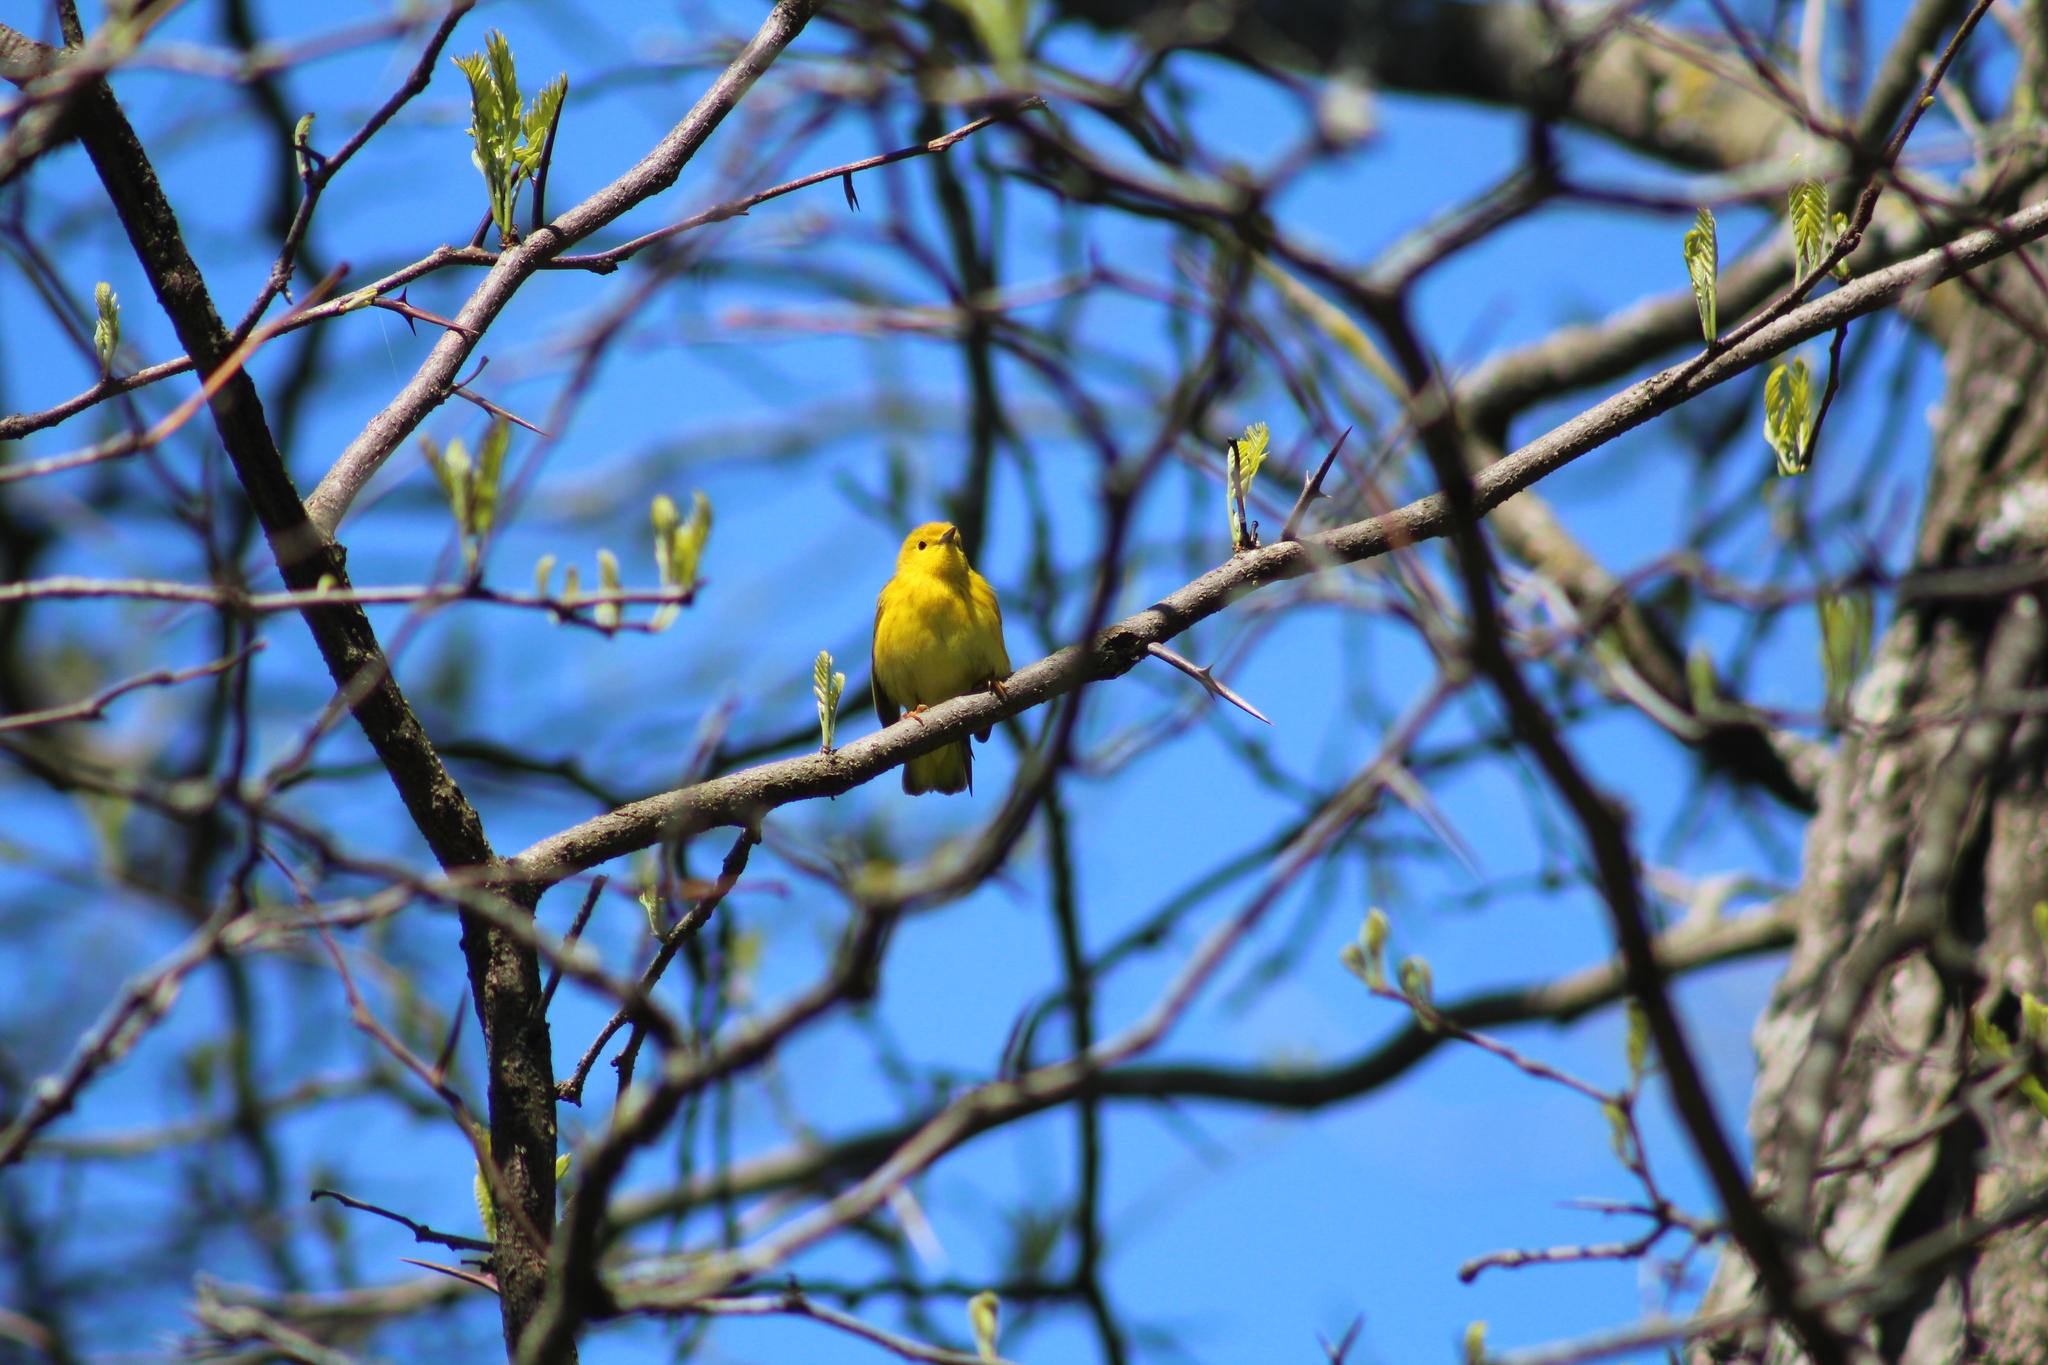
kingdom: Animalia
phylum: Chordata
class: Aves
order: Passeriformes
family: Parulidae
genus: Setophaga
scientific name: Setophaga petechia
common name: Yellow warbler
